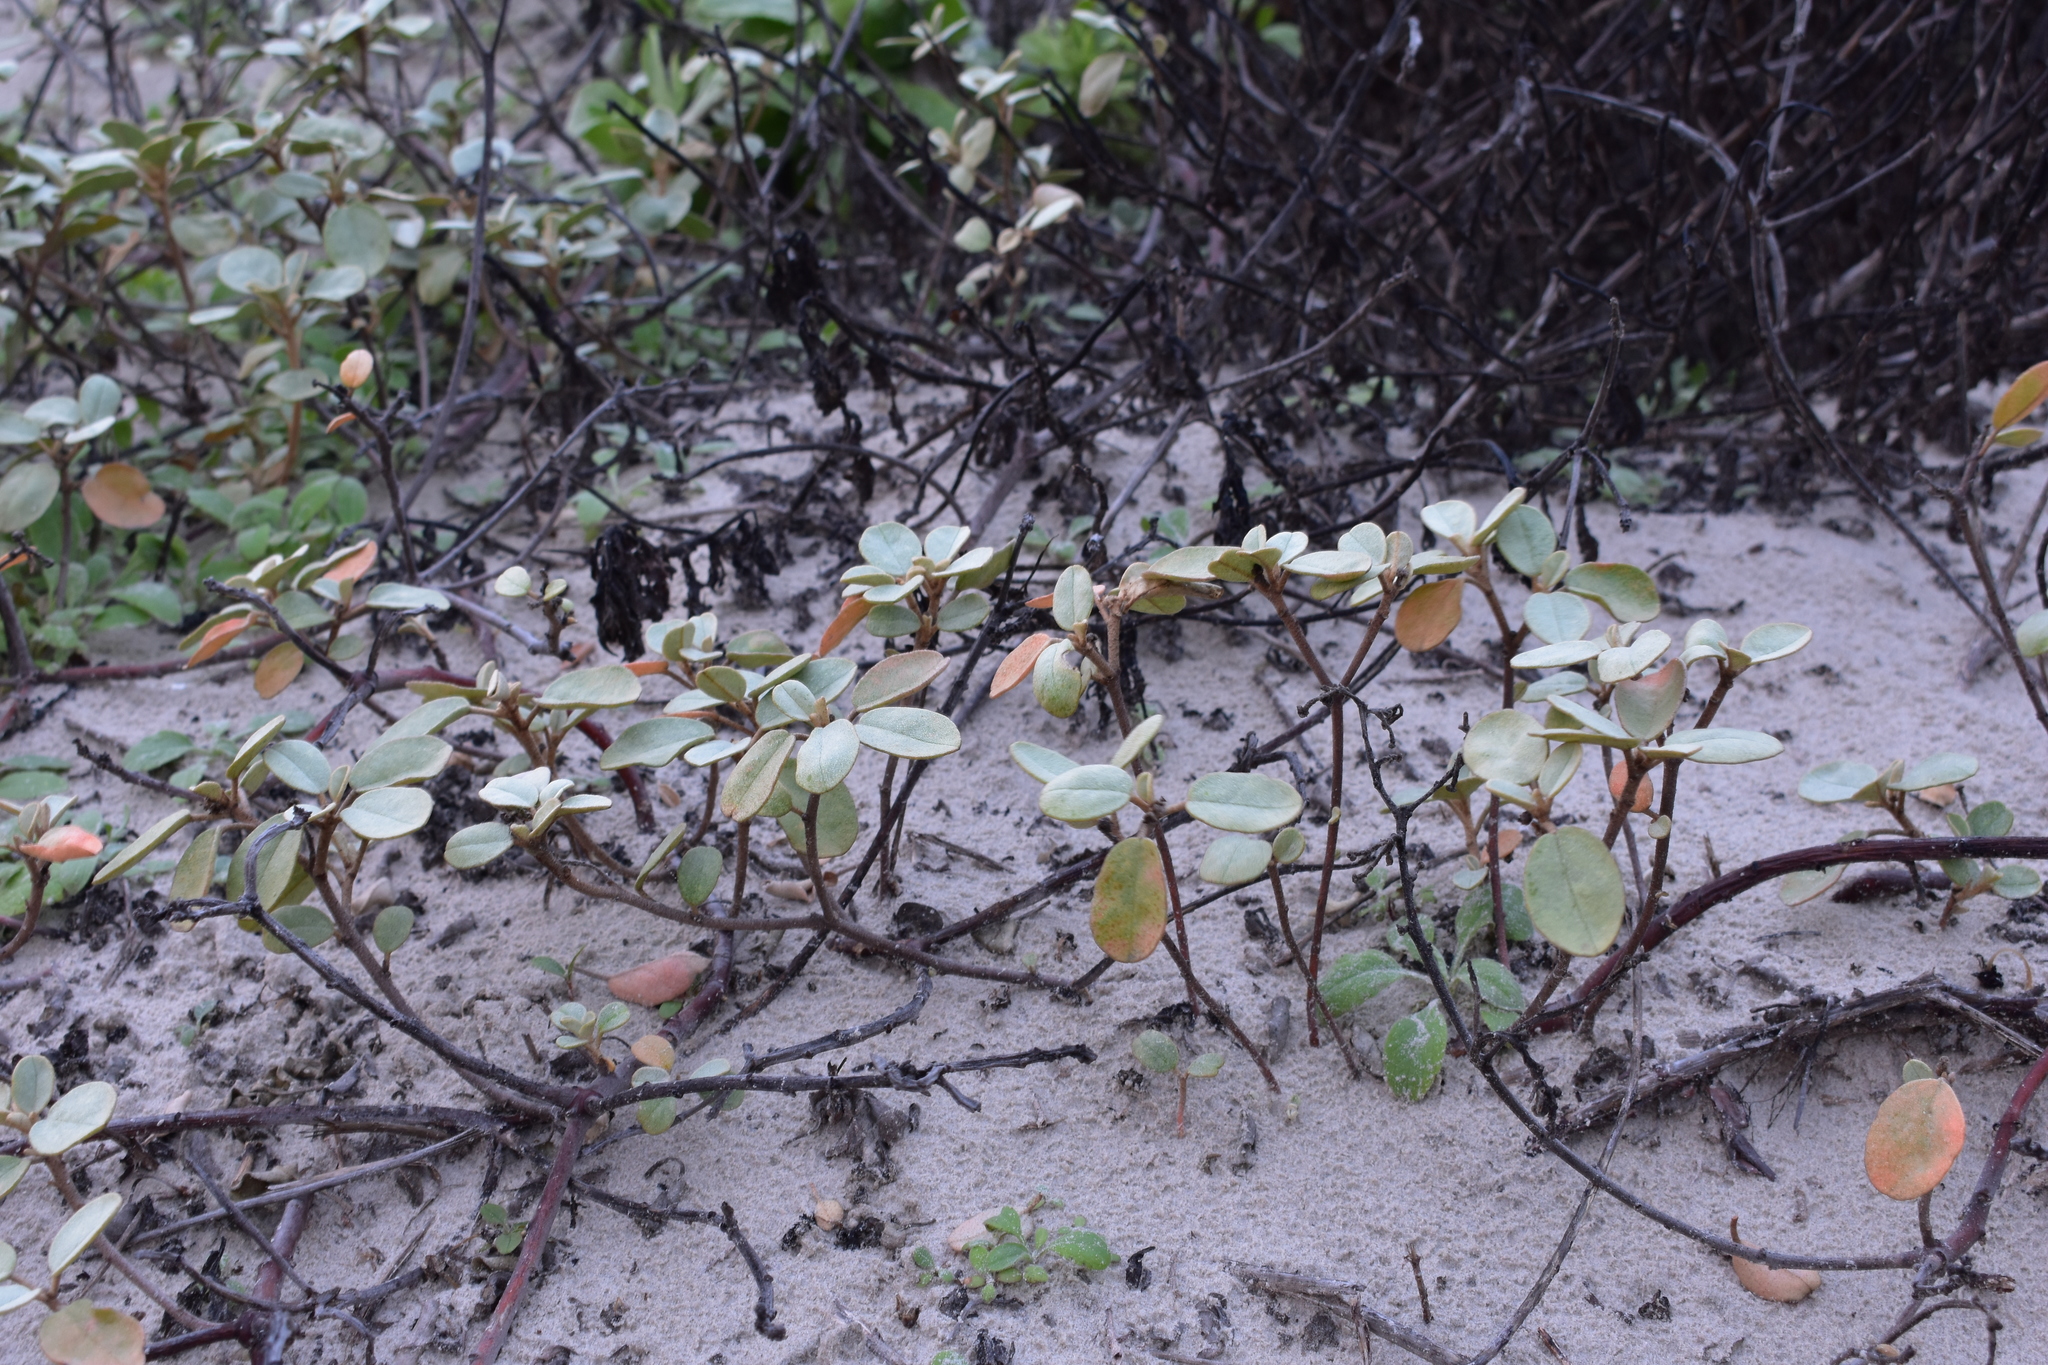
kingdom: Plantae
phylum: Tracheophyta
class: Magnoliopsida
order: Malpighiales
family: Euphorbiaceae
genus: Croton
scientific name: Croton punctatus
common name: Beach-tea
